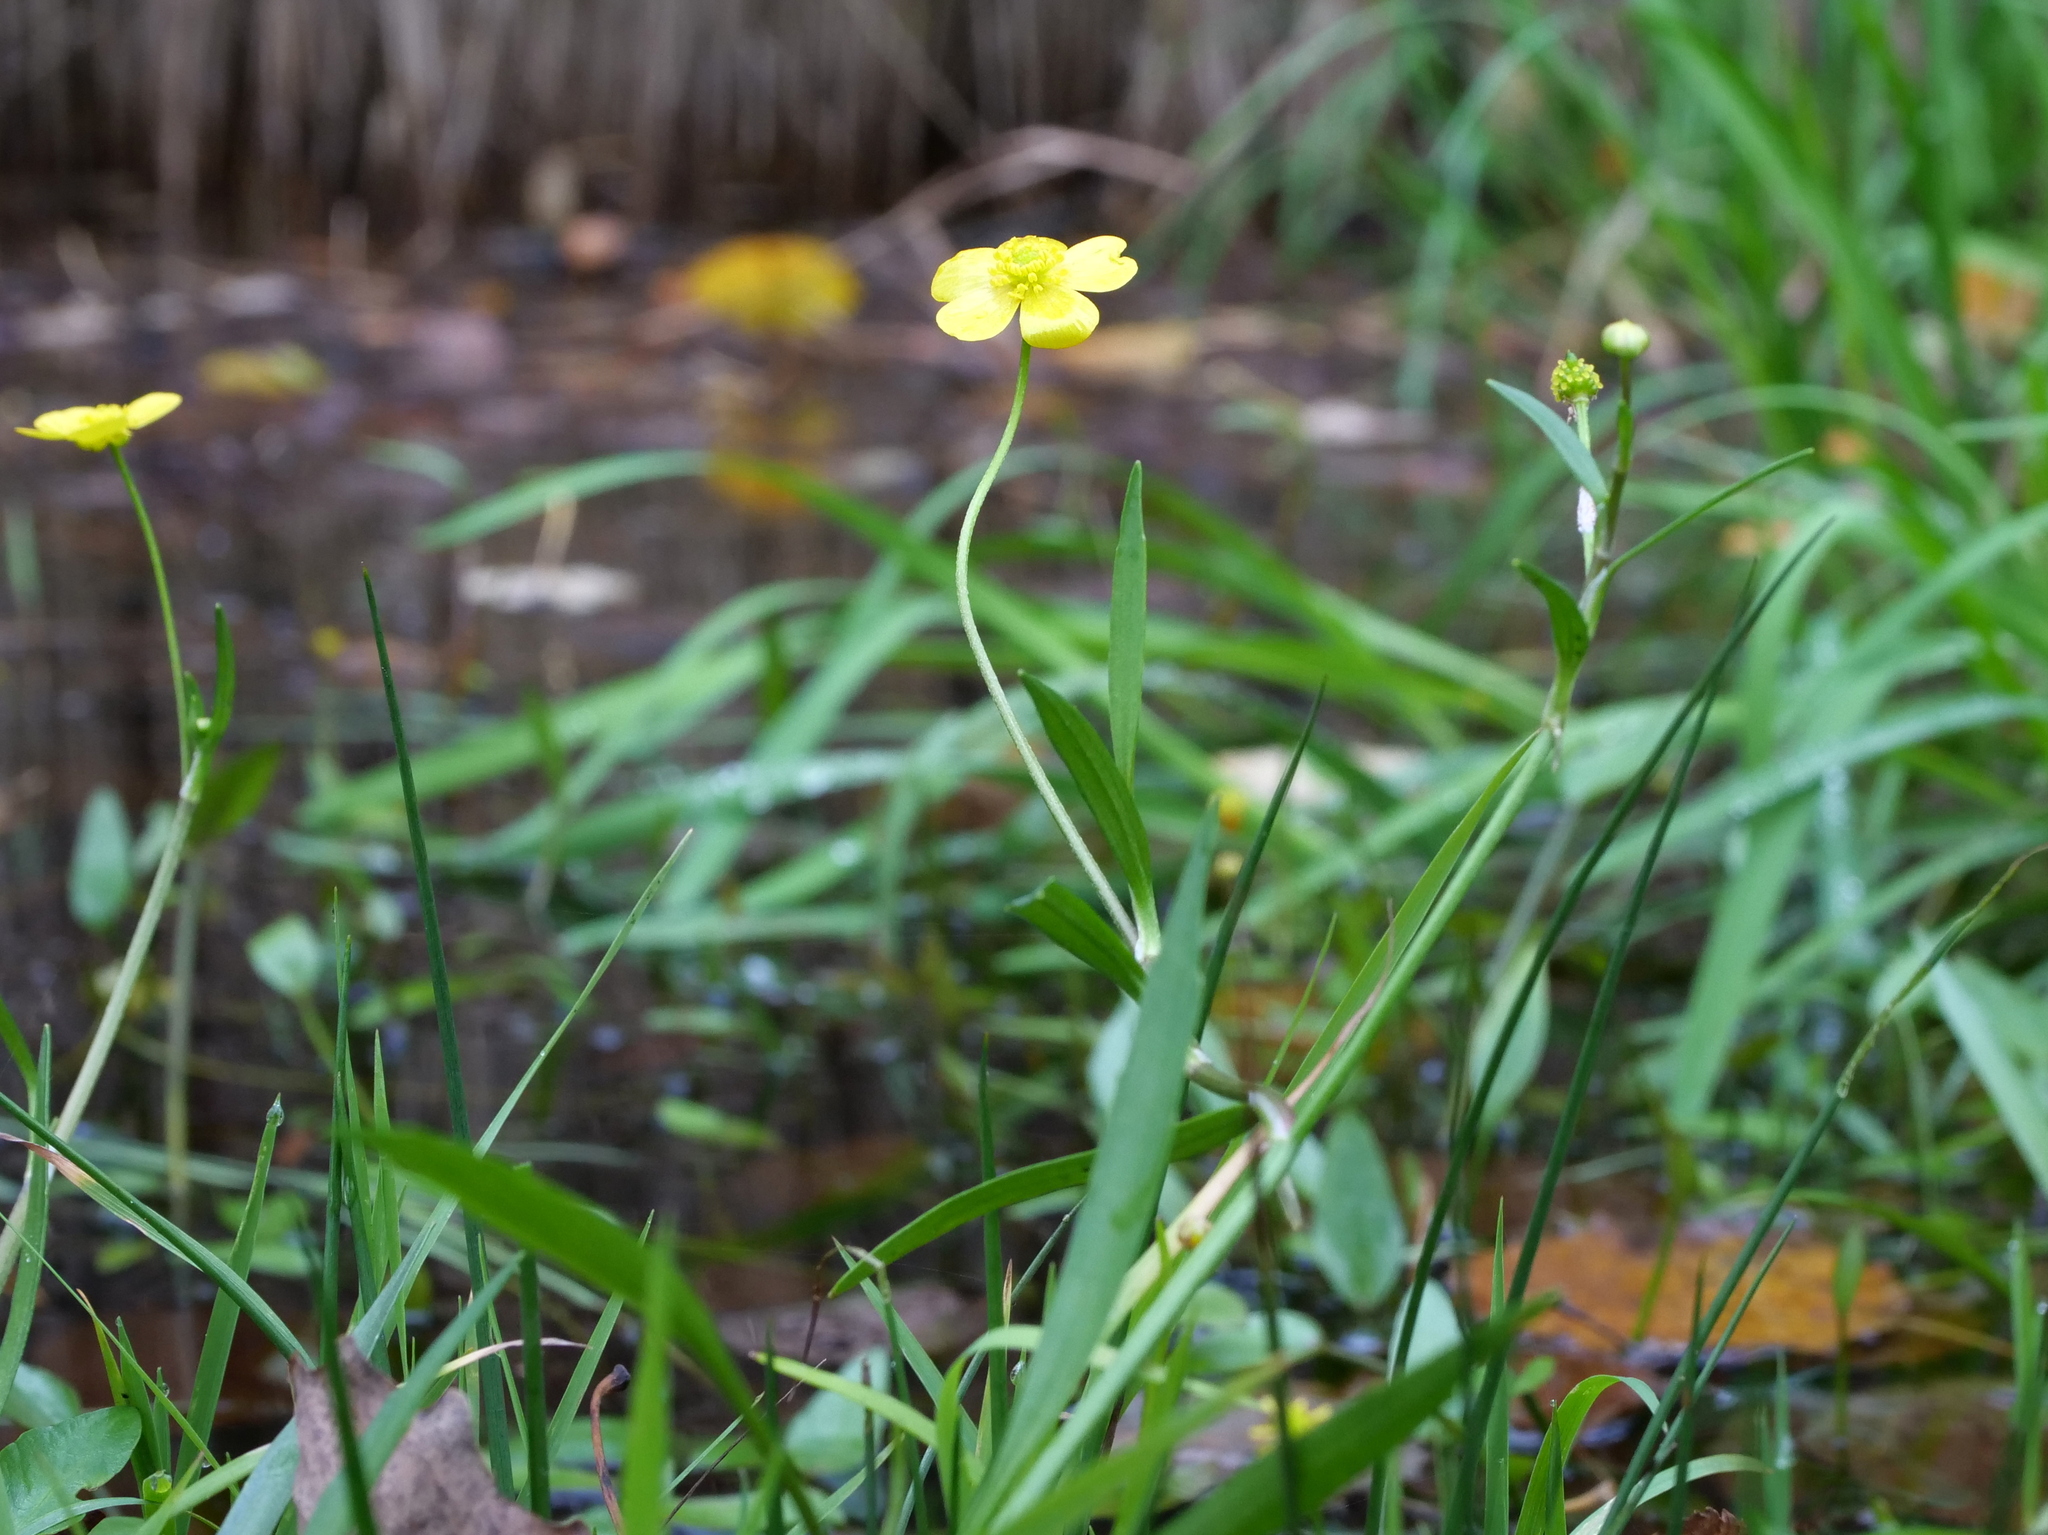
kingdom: Plantae
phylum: Tracheophyta
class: Magnoliopsida
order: Ranunculales
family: Ranunculaceae
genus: Ranunculus
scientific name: Ranunculus flammula
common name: Lesser spearwort
